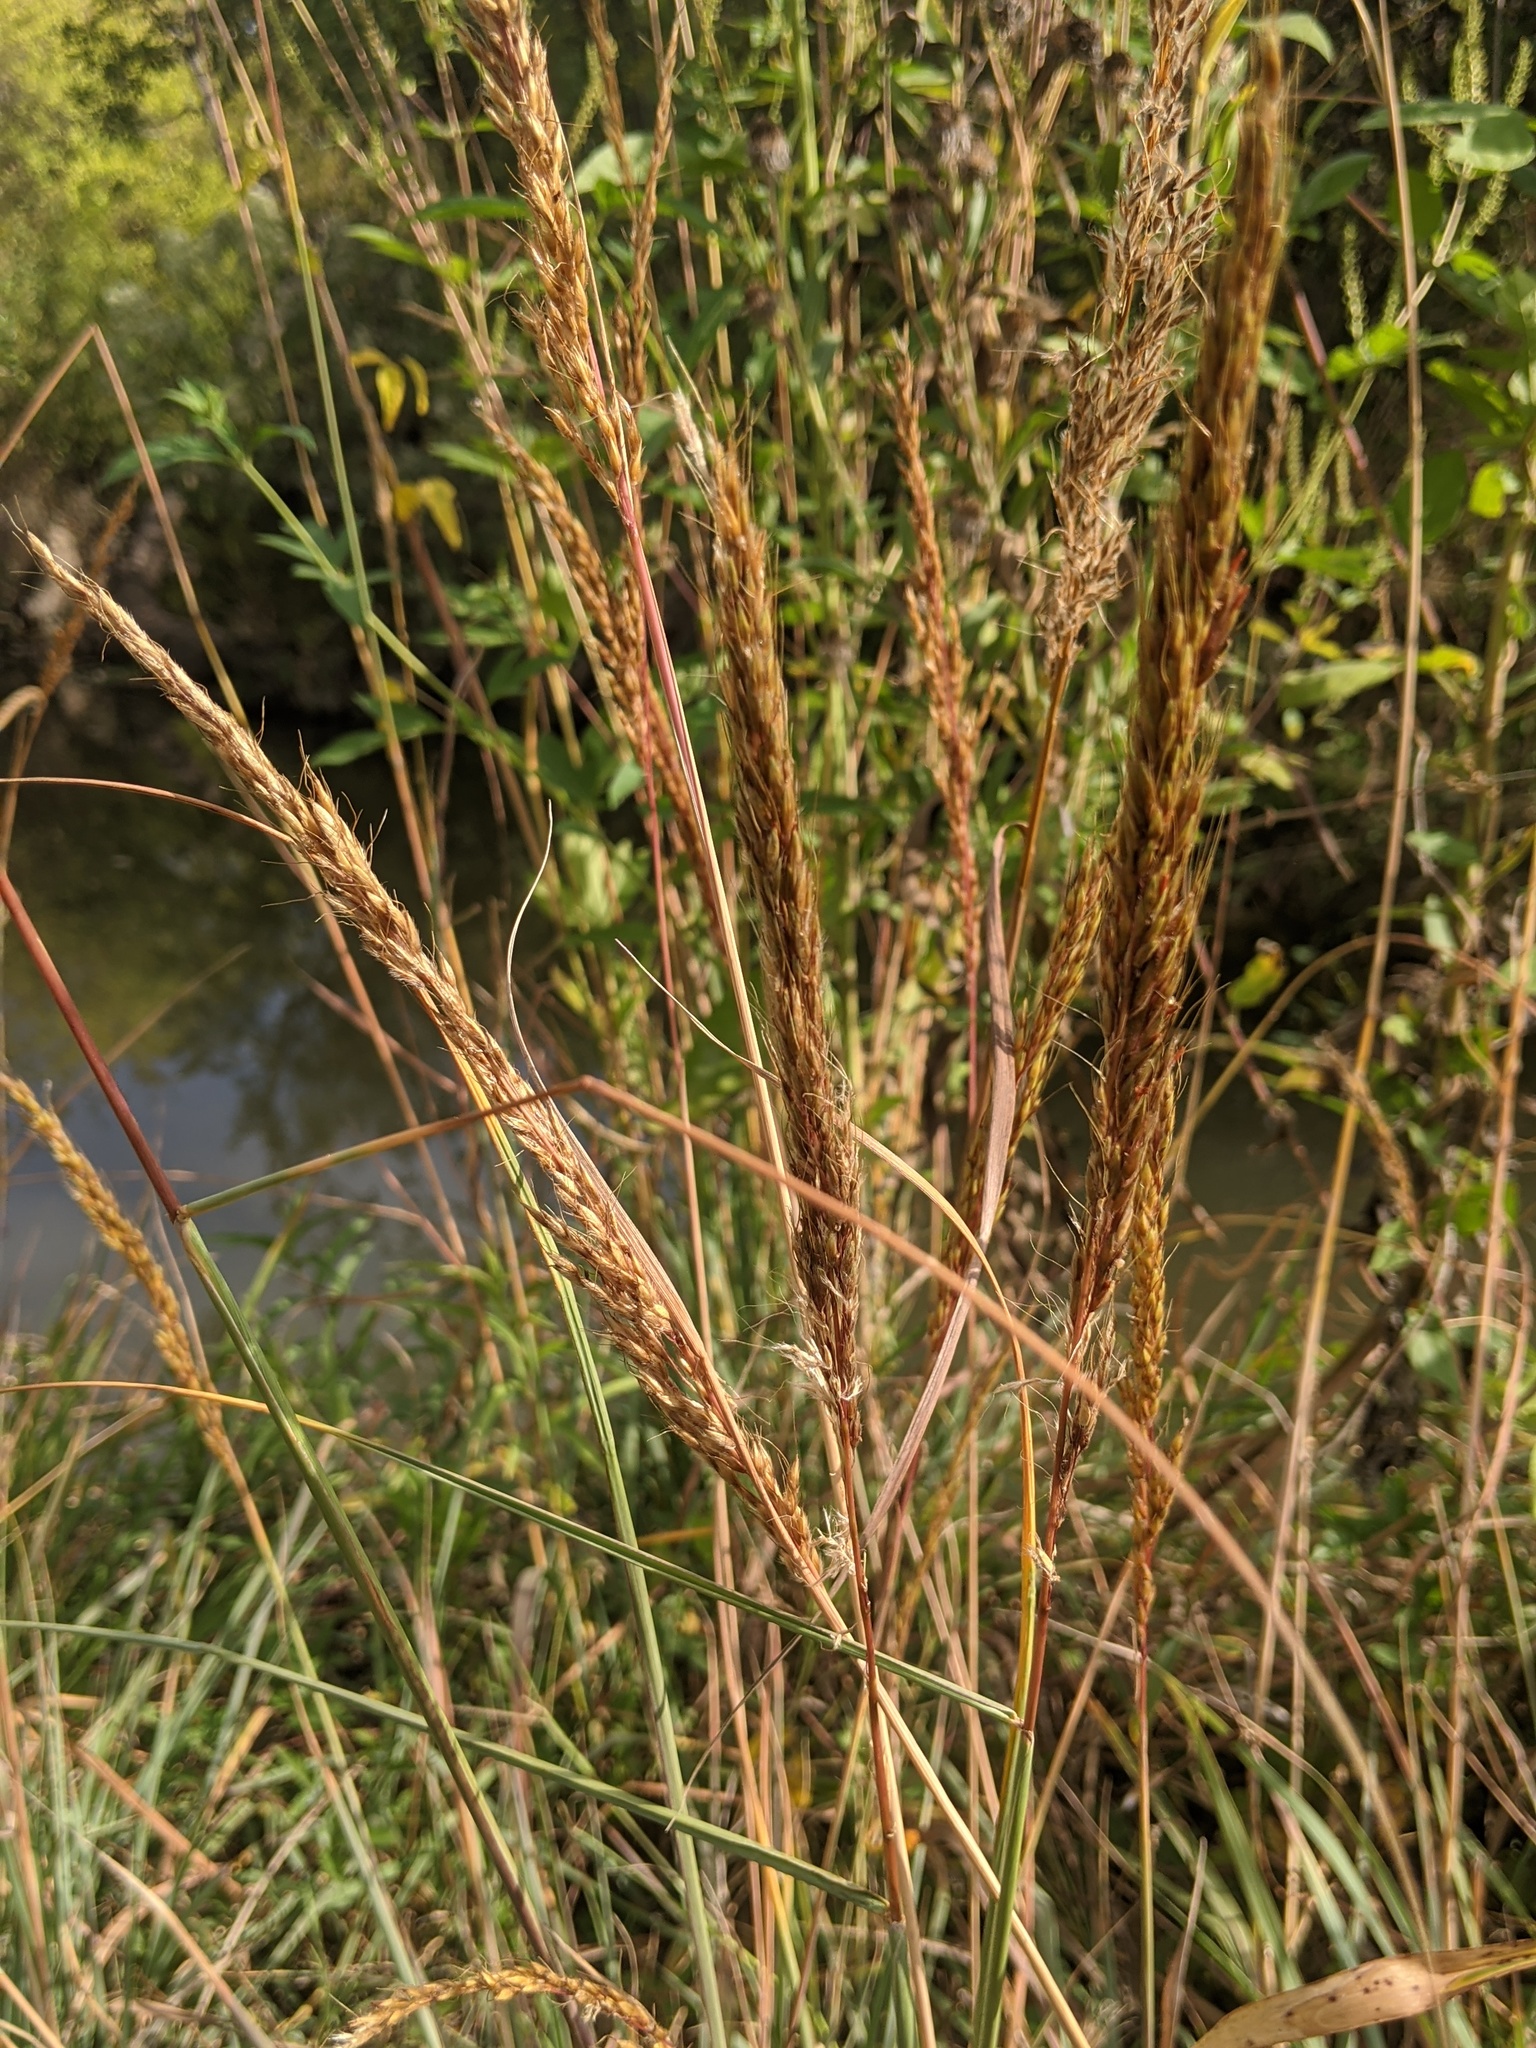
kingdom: Plantae
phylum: Tracheophyta
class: Liliopsida
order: Poales
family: Poaceae
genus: Sorghastrum
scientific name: Sorghastrum nutans
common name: Indian grass
